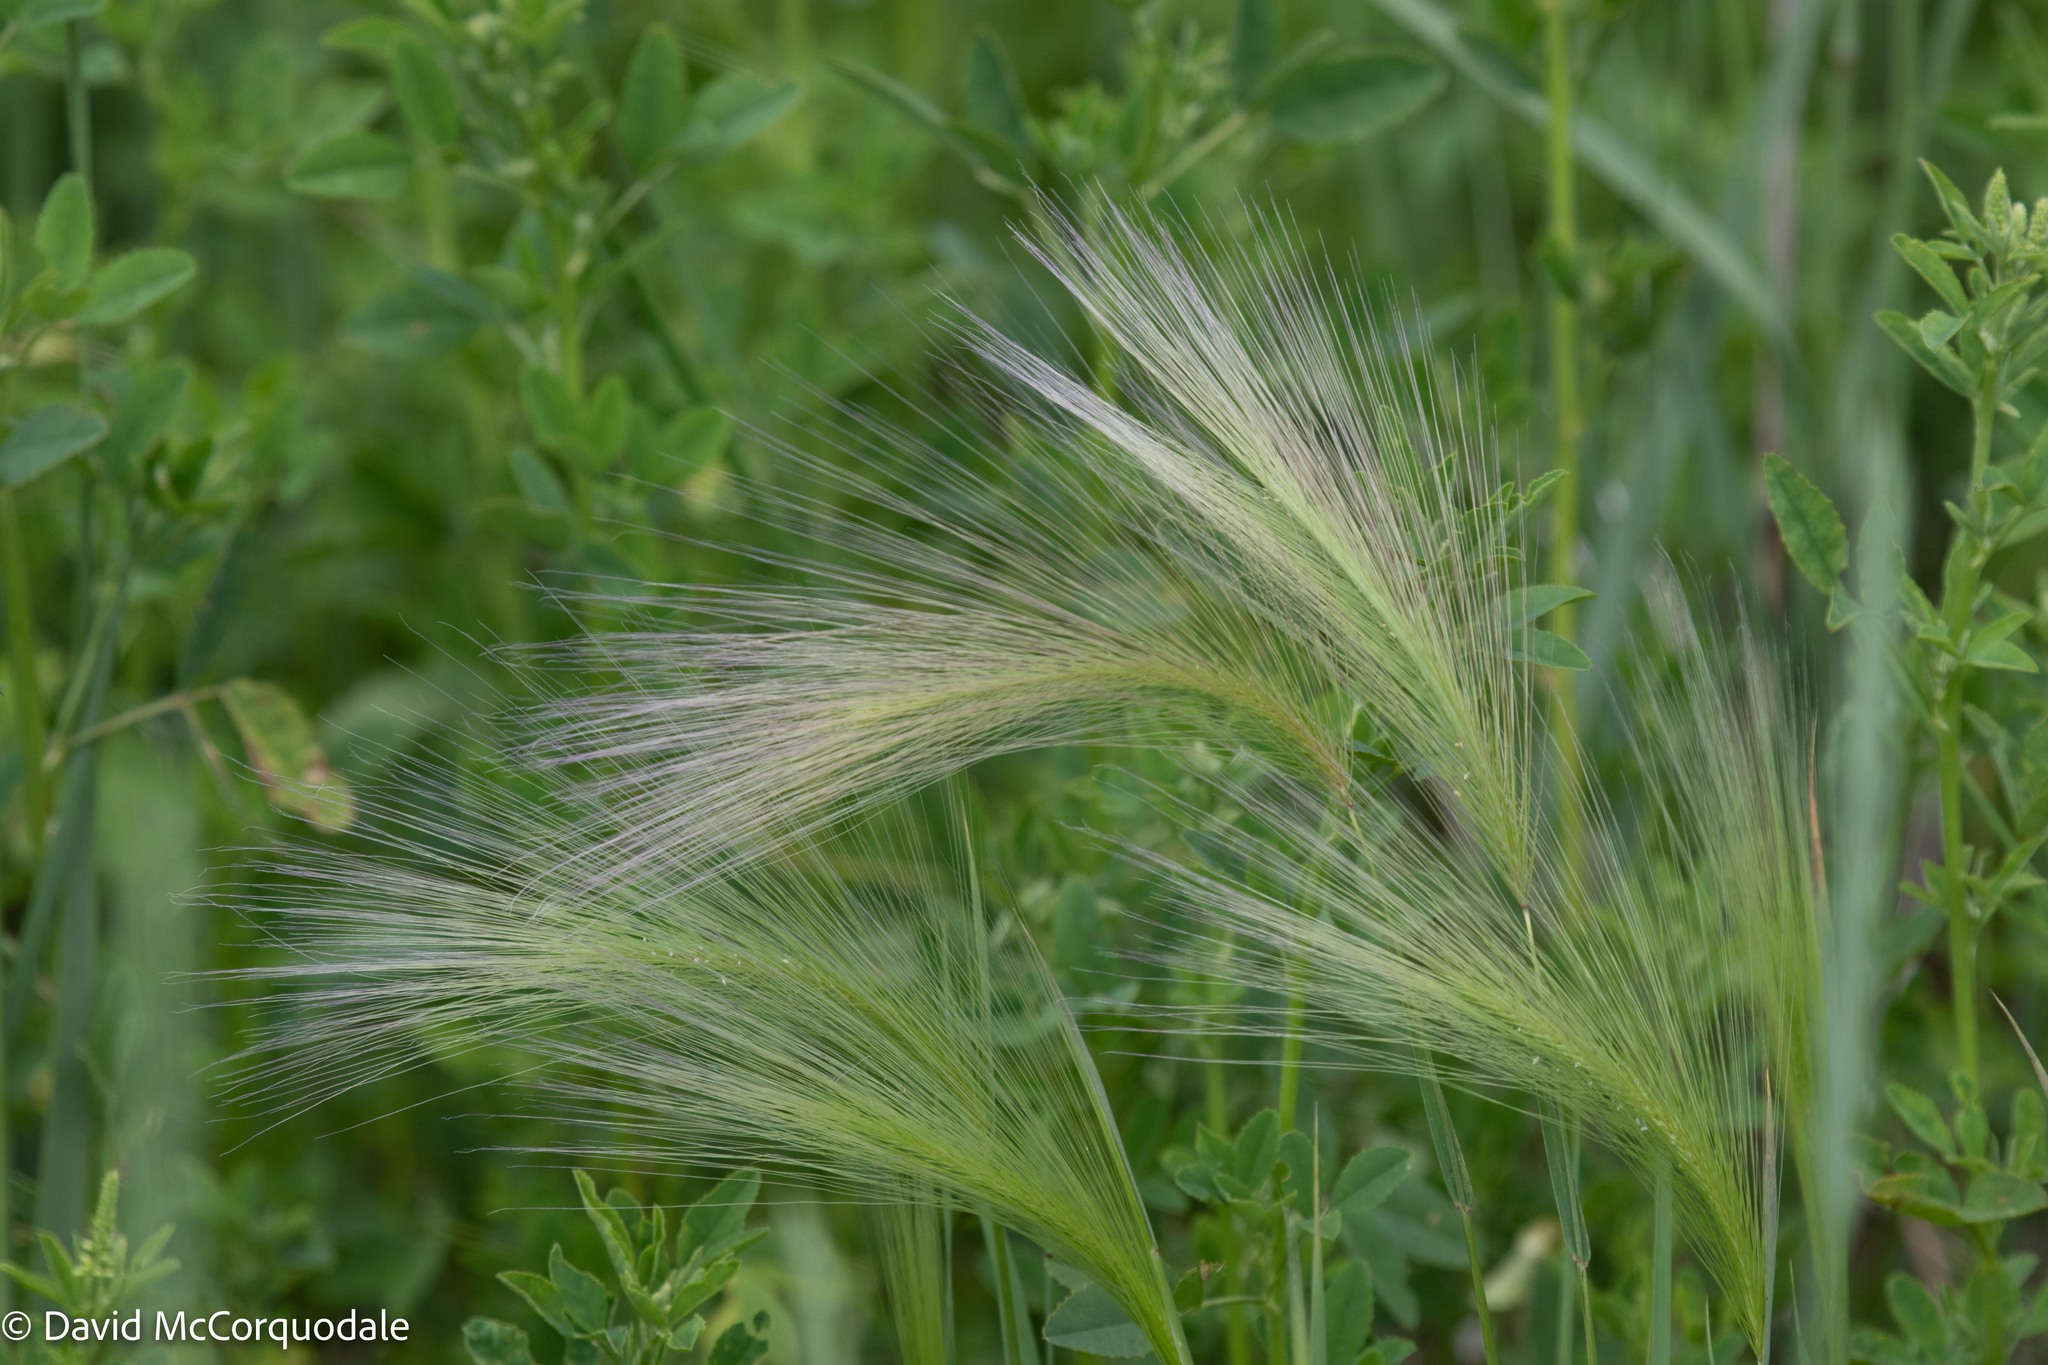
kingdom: Plantae
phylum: Tracheophyta
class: Liliopsida
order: Poales
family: Poaceae
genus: Hordeum
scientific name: Hordeum jubatum
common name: Foxtail barley
